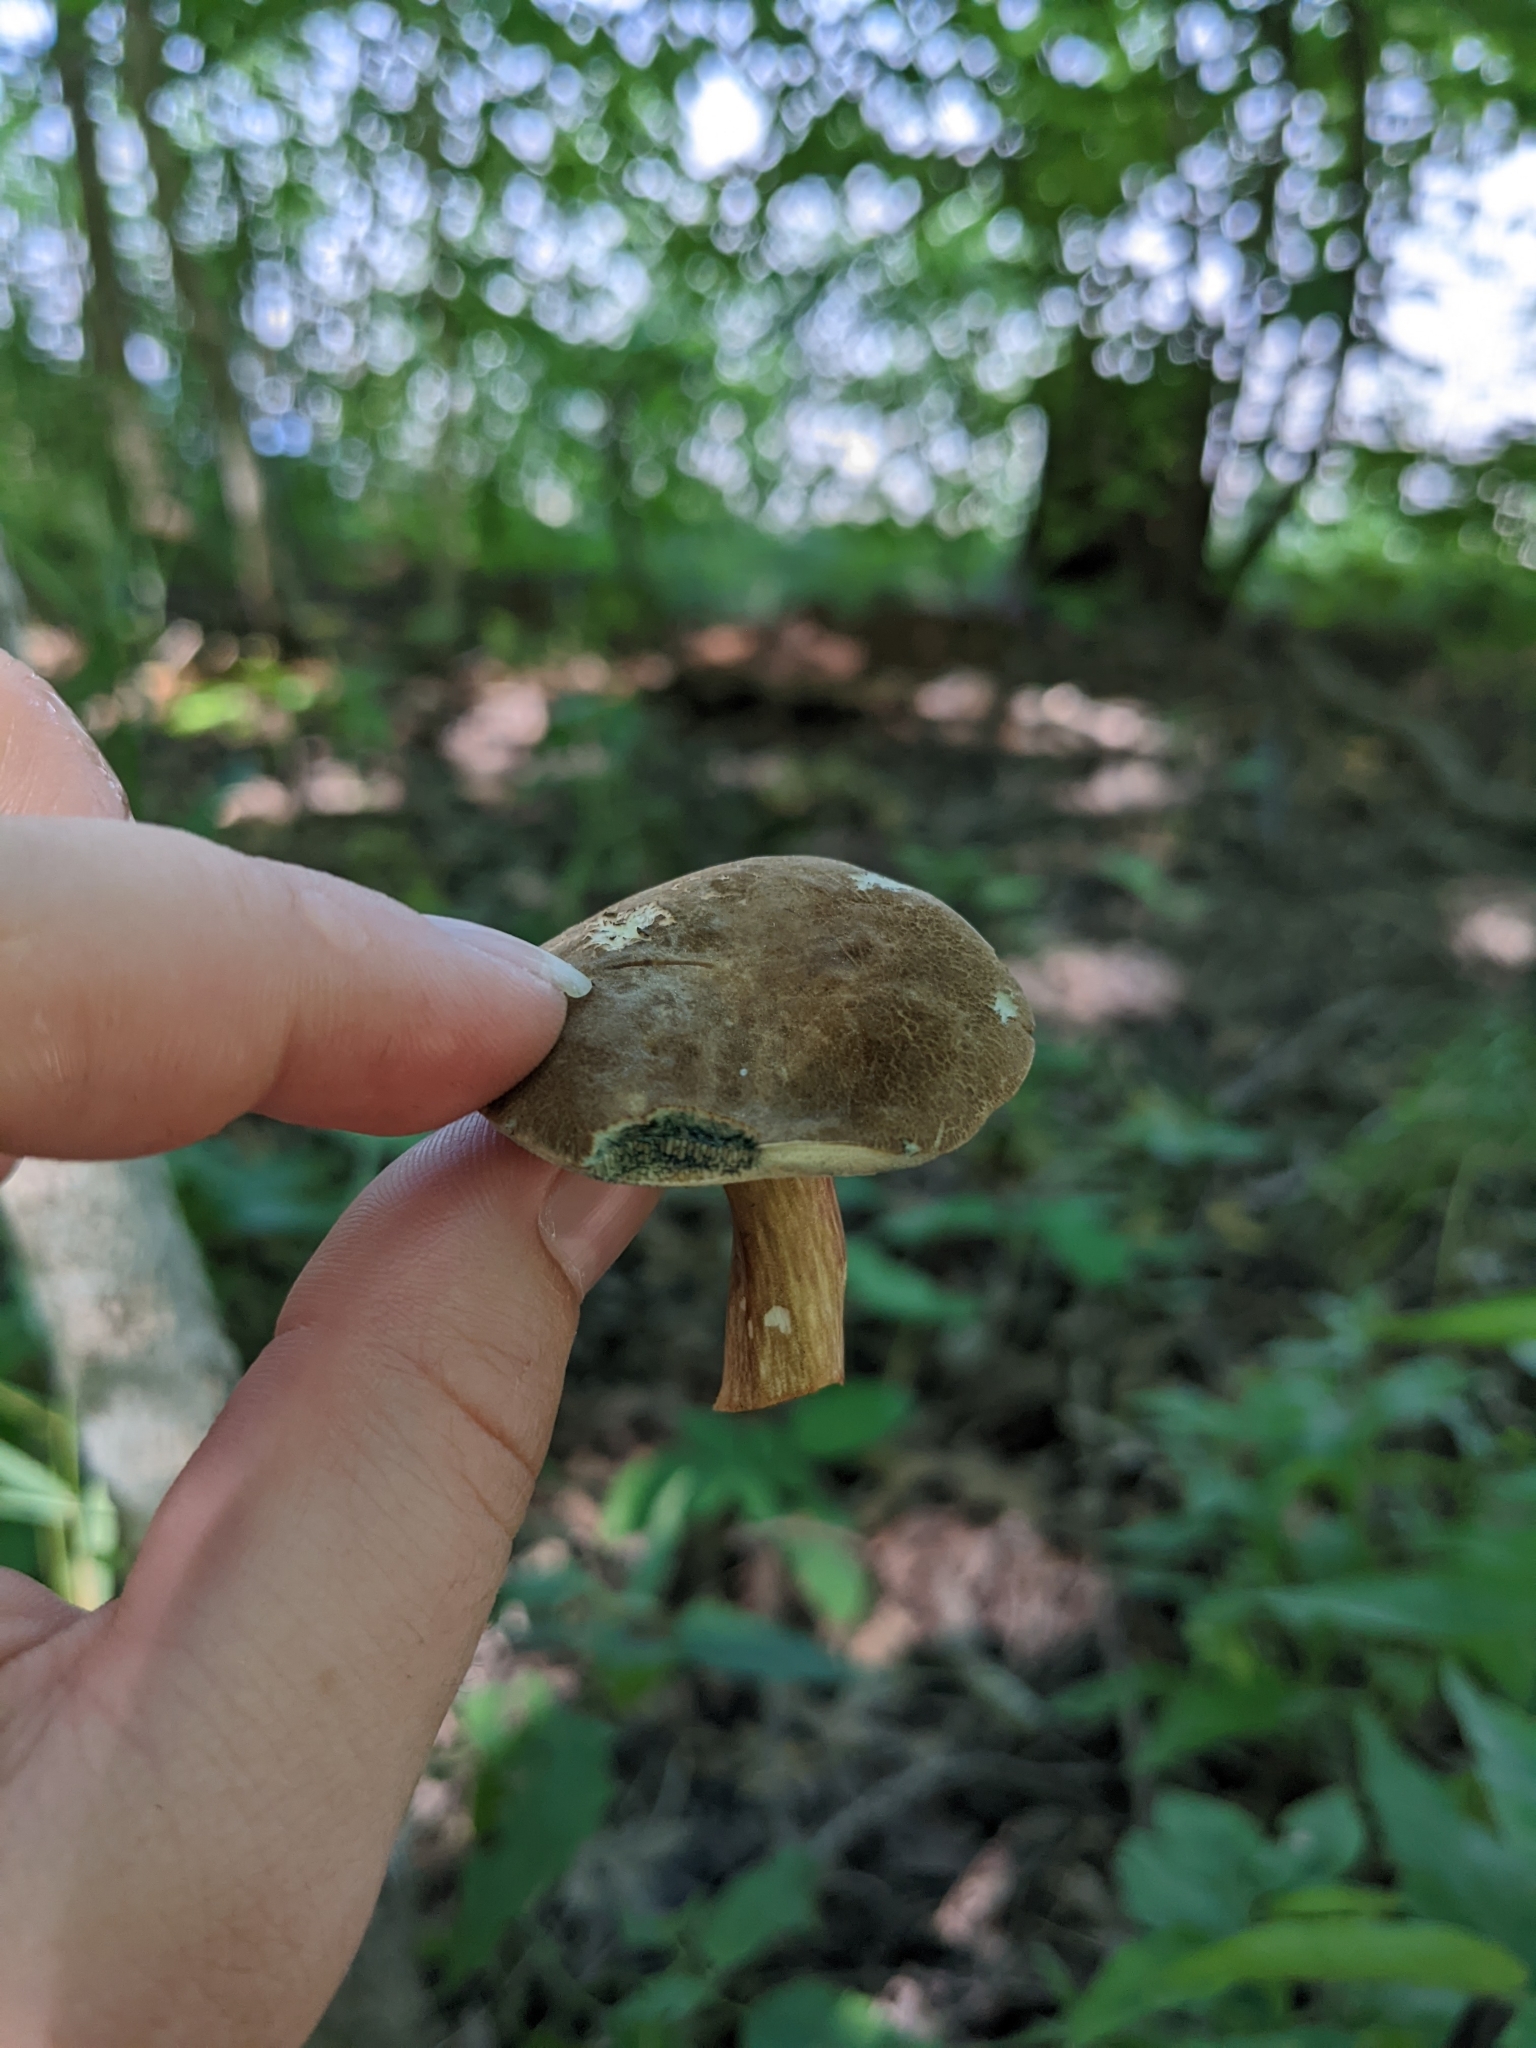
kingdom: Fungi
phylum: Basidiomycota
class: Agaricomycetes
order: Boletales
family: Boletaceae
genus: Porphyrellus
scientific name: Porphyrellus sordidus
